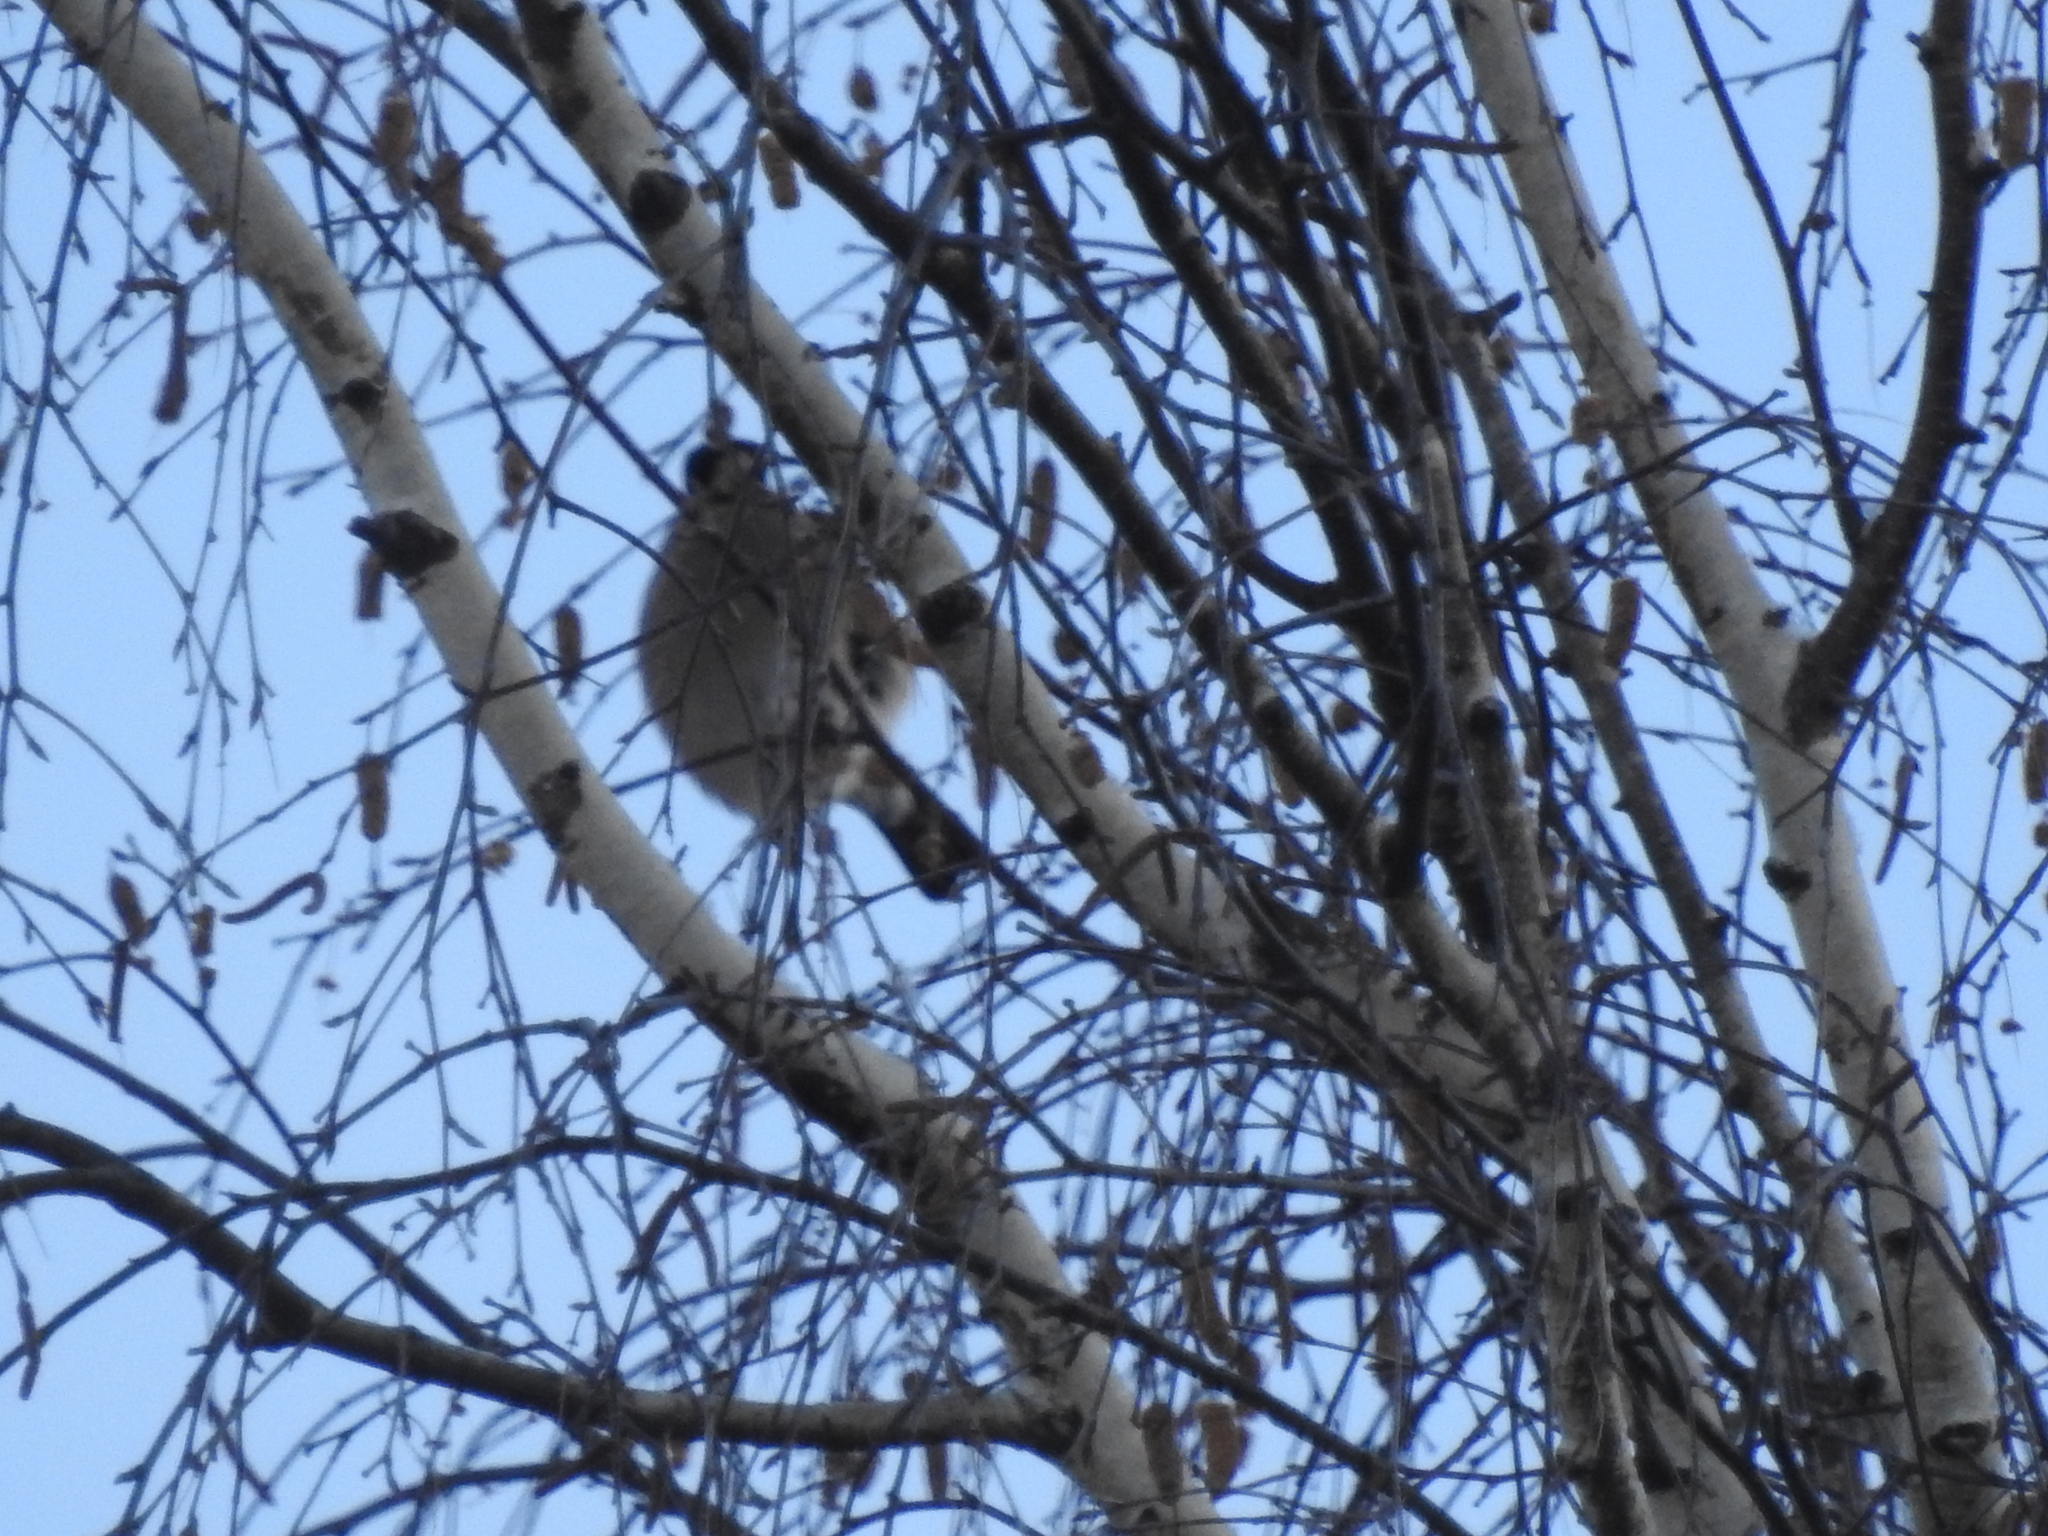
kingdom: Animalia
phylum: Chordata
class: Aves
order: Passeriformes
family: Fringillidae
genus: Pyrrhula
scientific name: Pyrrhula pyrrhula
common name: Eurasian bullfinch
